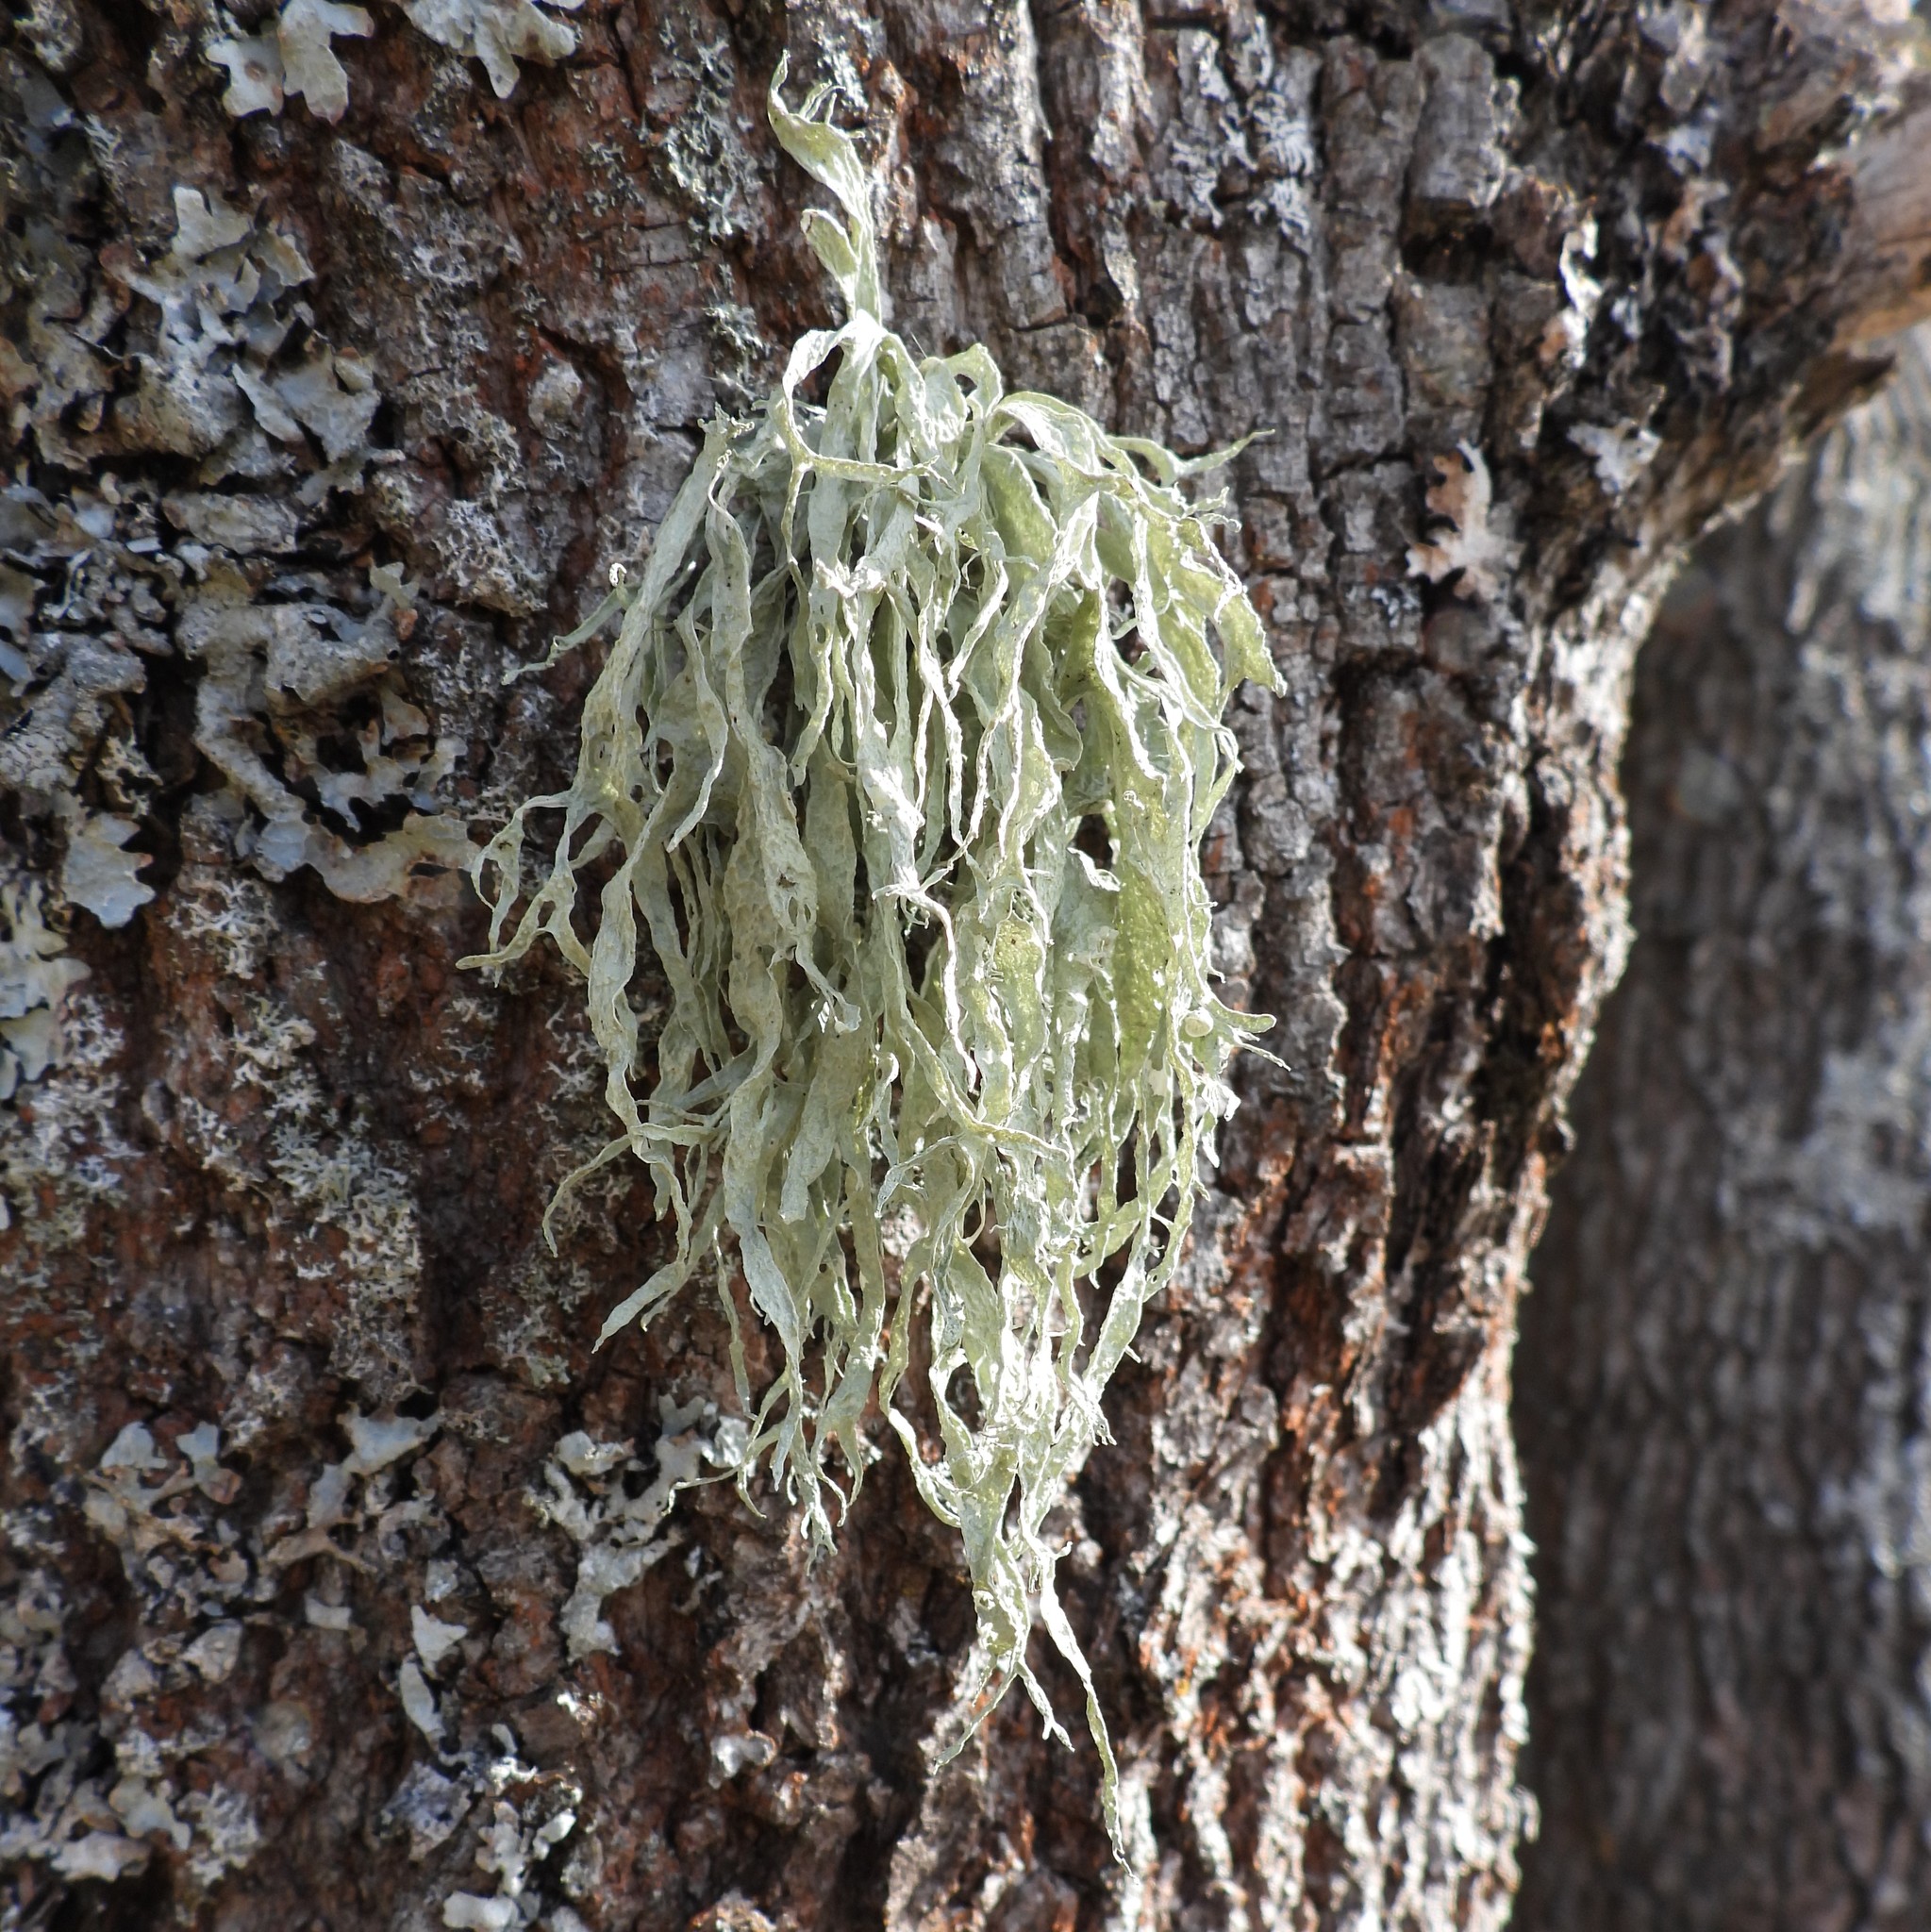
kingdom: Fungi
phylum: Ascomycota
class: Lecanoromycetes
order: Lecanorales
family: Ramalinaceae
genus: Ramalina
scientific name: Ramalina fraxinea
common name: Cartilage lichen
